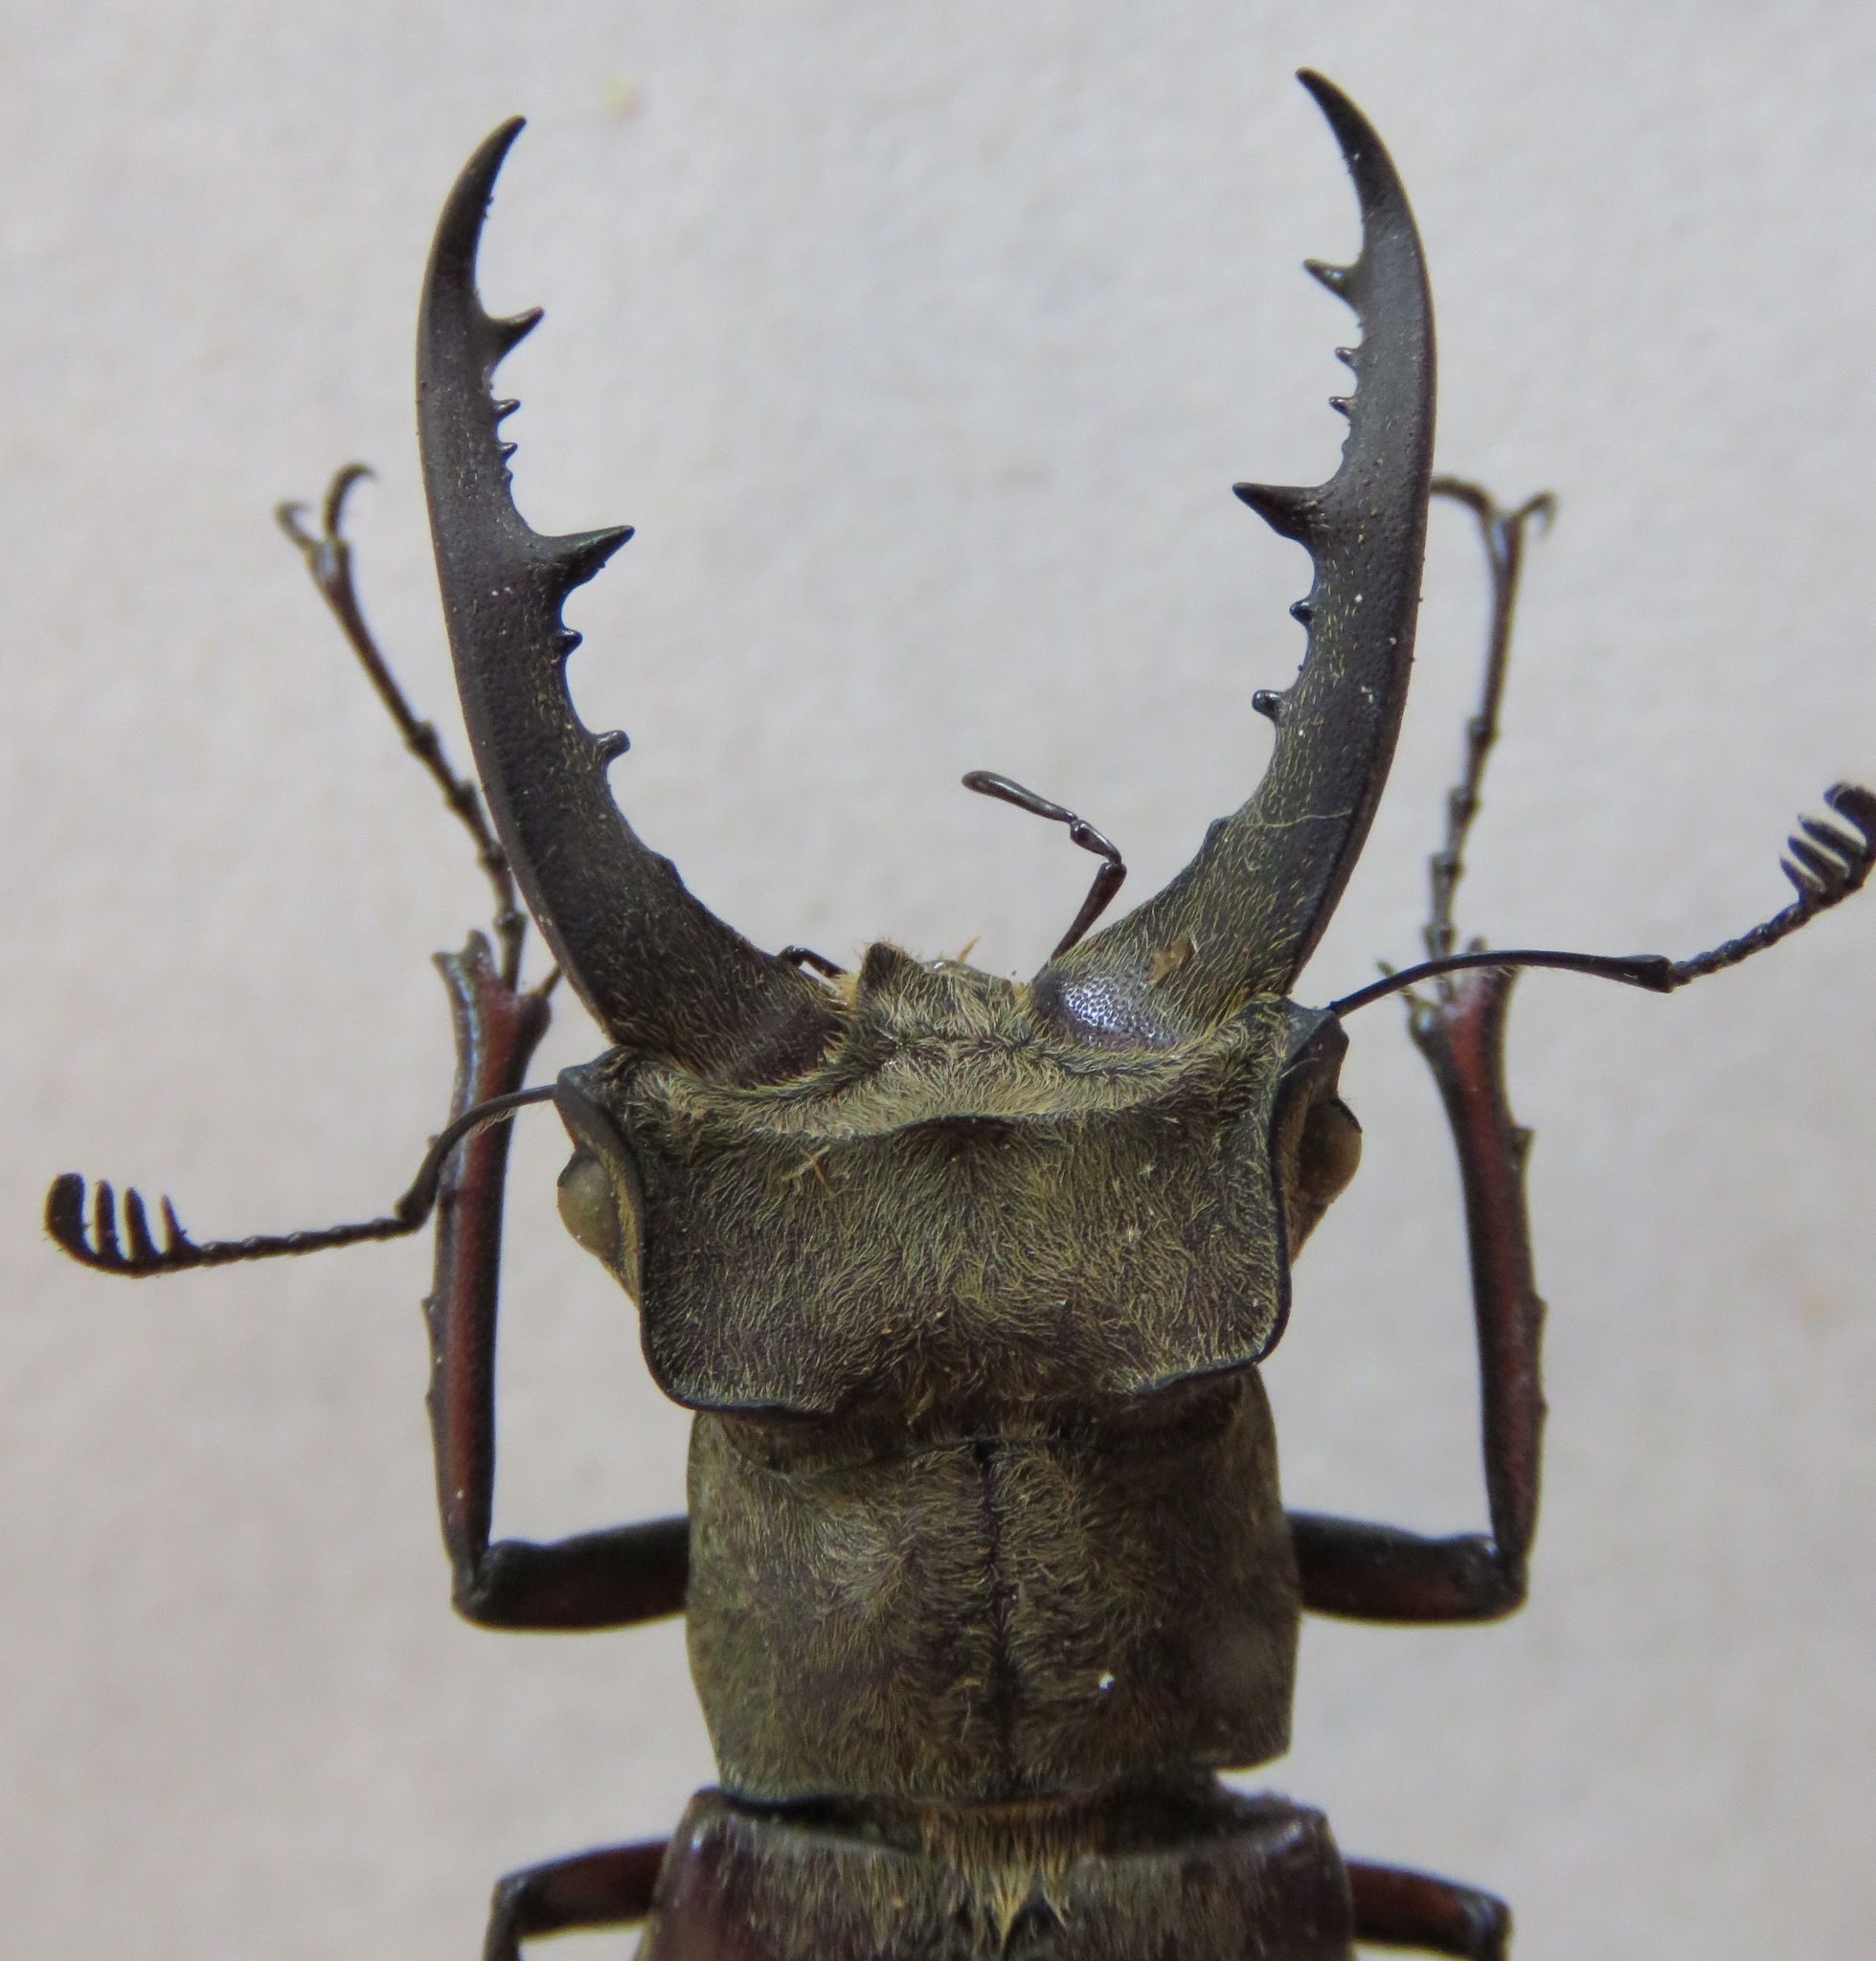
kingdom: Animalia
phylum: Arthropoda
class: Insecta
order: Coleoptera
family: Lucanidae
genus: Lucanus
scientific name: Lucanus tsukamotoi
